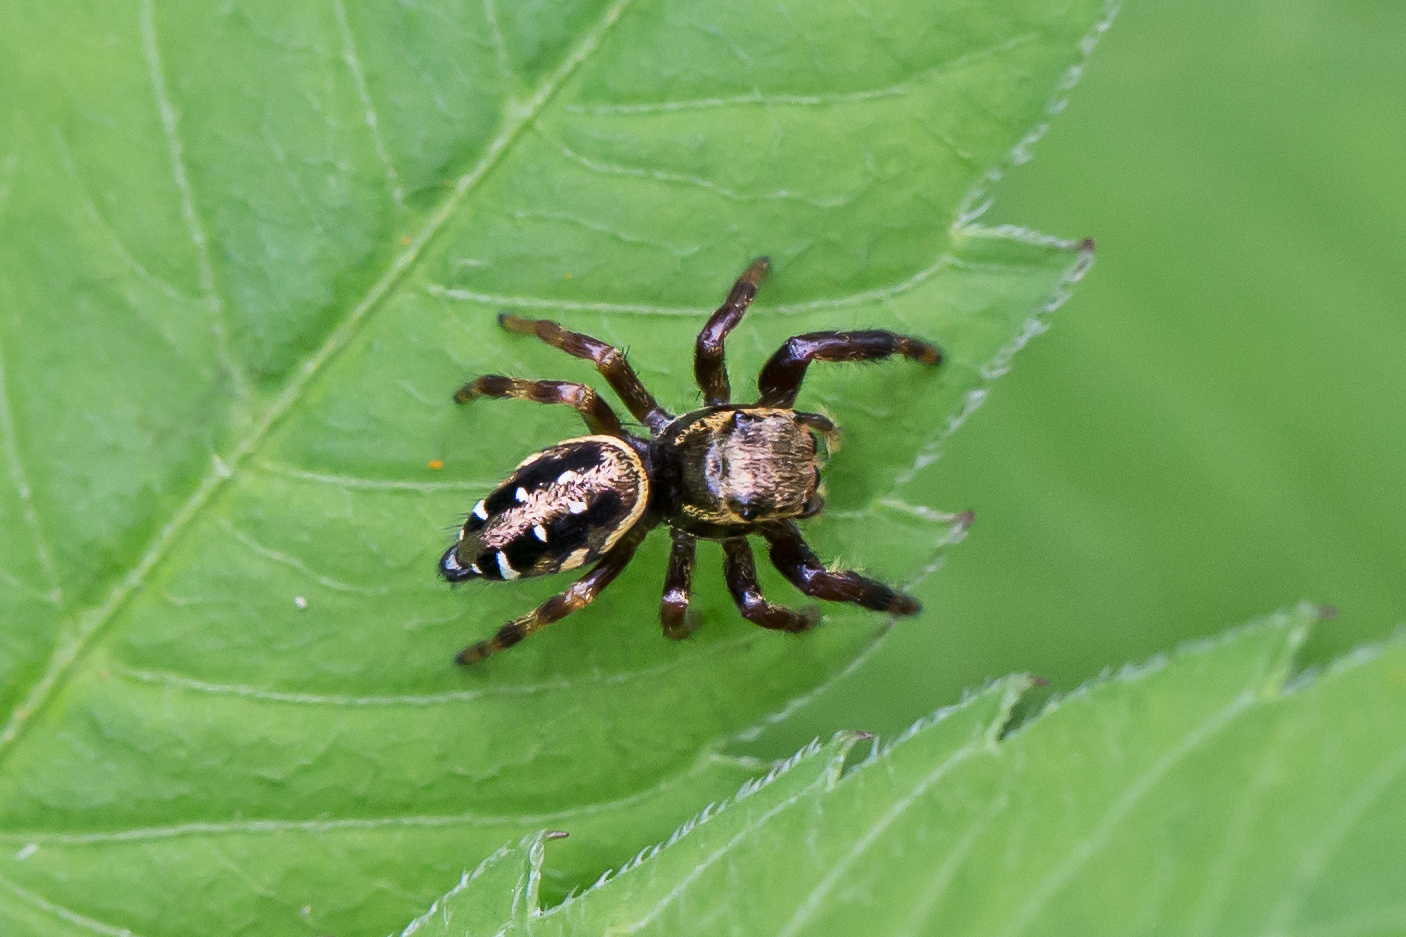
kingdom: Animalia
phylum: Arthropoda
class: Arachnida
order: Araneae
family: Salticidae
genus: Paraphidippus
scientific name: Paraphidippus aurantius
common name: Jumping spiders
